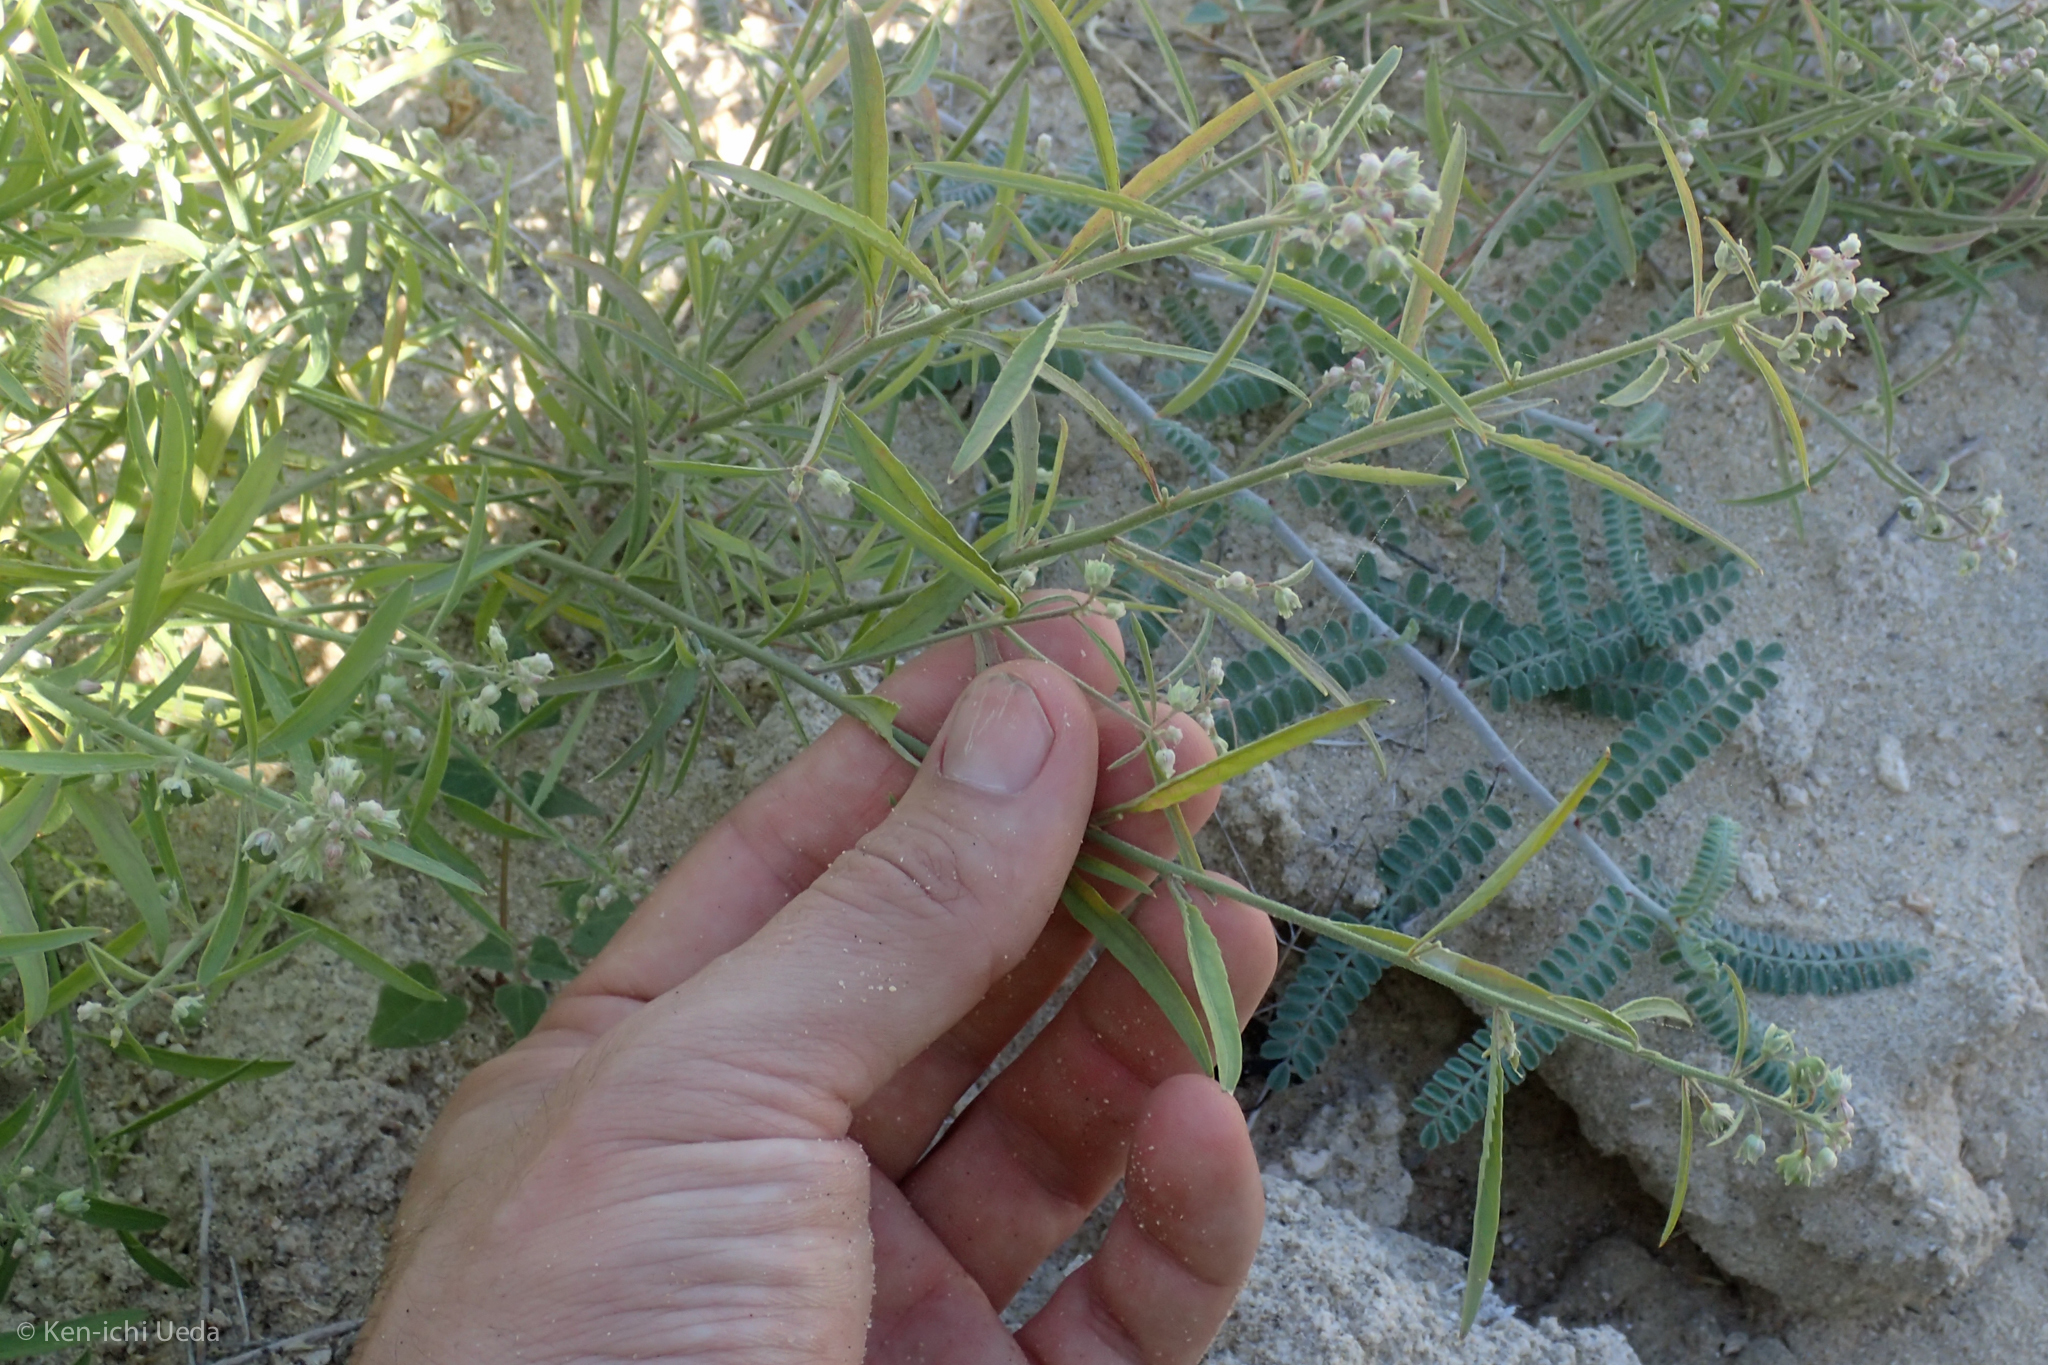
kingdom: Plantae
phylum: Tracheophyta
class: Magnoliopsida
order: Malpighiales
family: Violaceae
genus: Hybanthus
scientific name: Hybanthus fruticulosus
